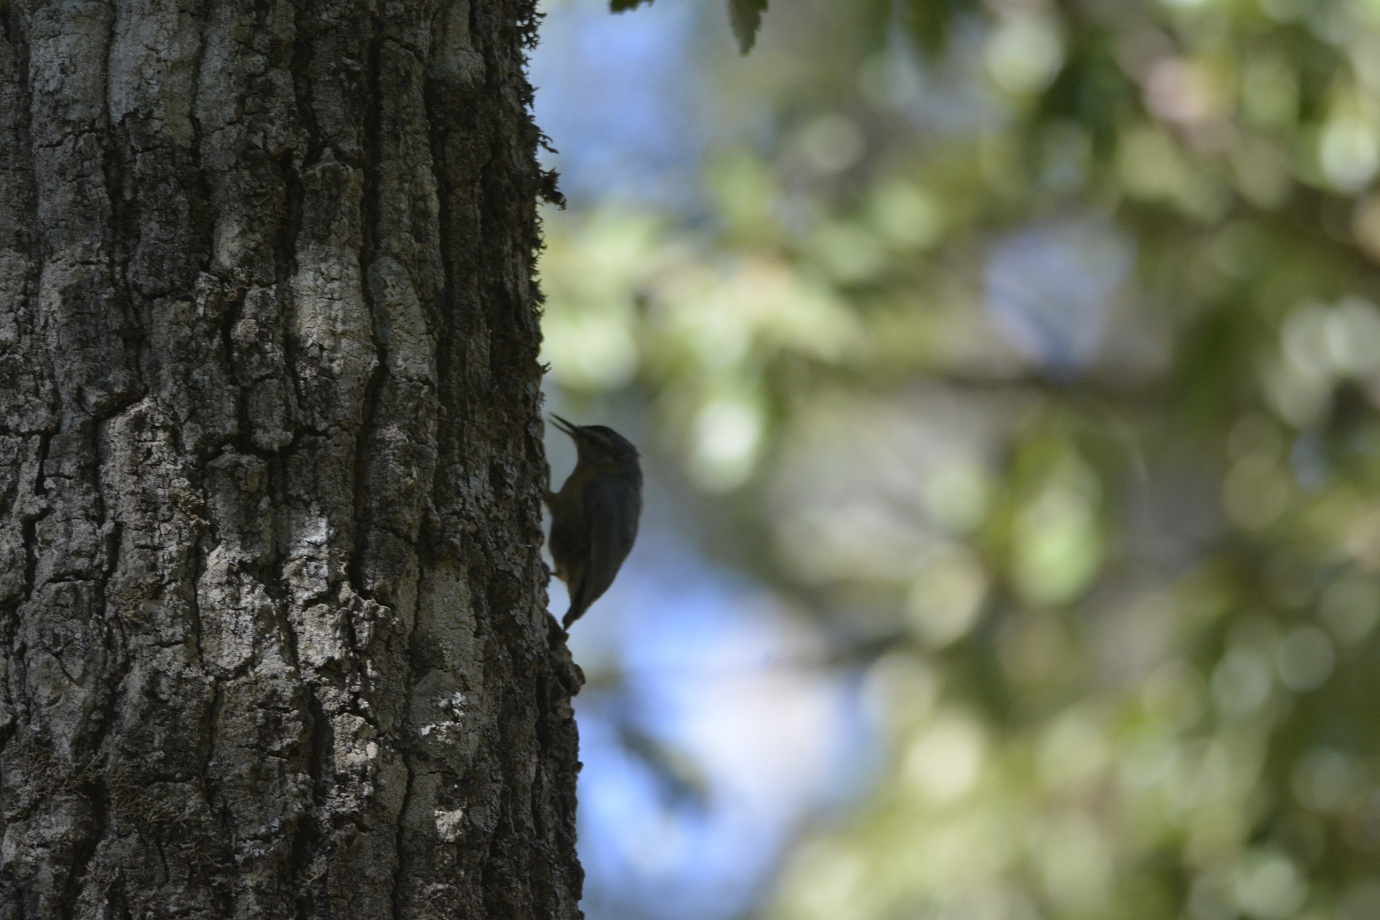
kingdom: Animalia
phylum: Chordata
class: Aves
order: Passeriformes
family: Sittidae
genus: Sitta
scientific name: Sitta ledanti
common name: Algerian nuthatch
